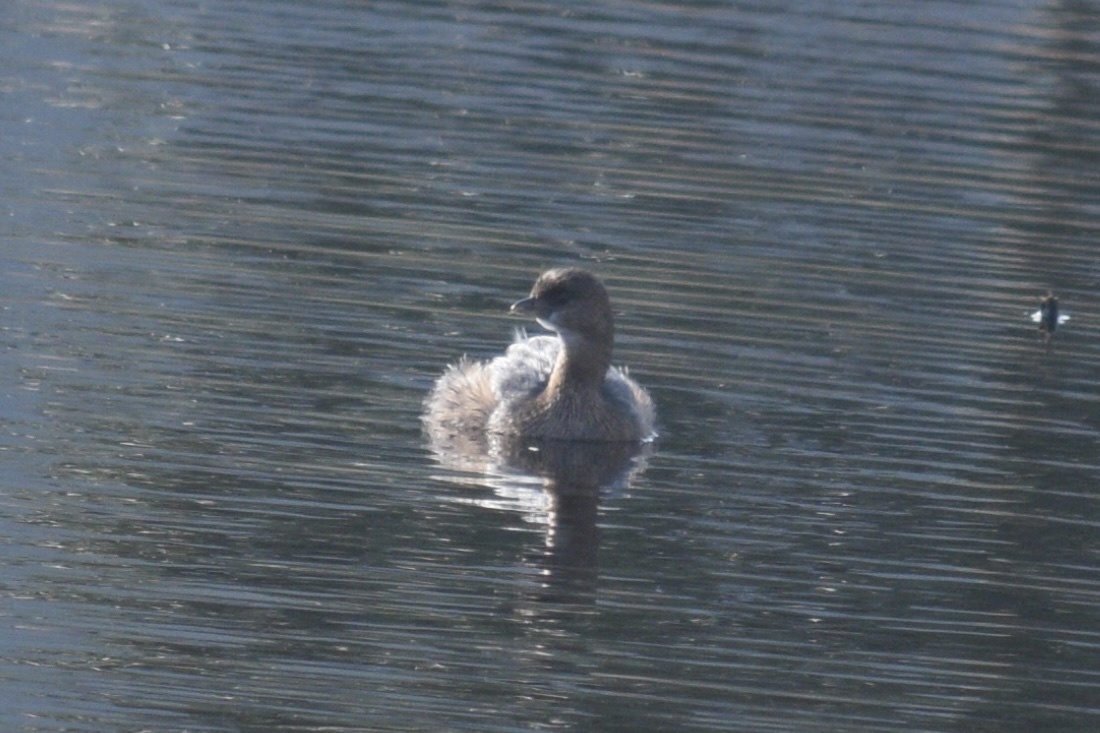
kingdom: Animalia
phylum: Chordata
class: Aves
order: Podicipediformes
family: Podicipedidae
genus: Podilymbus
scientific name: Podilymbus podiceps
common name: Pied-billed grebe
